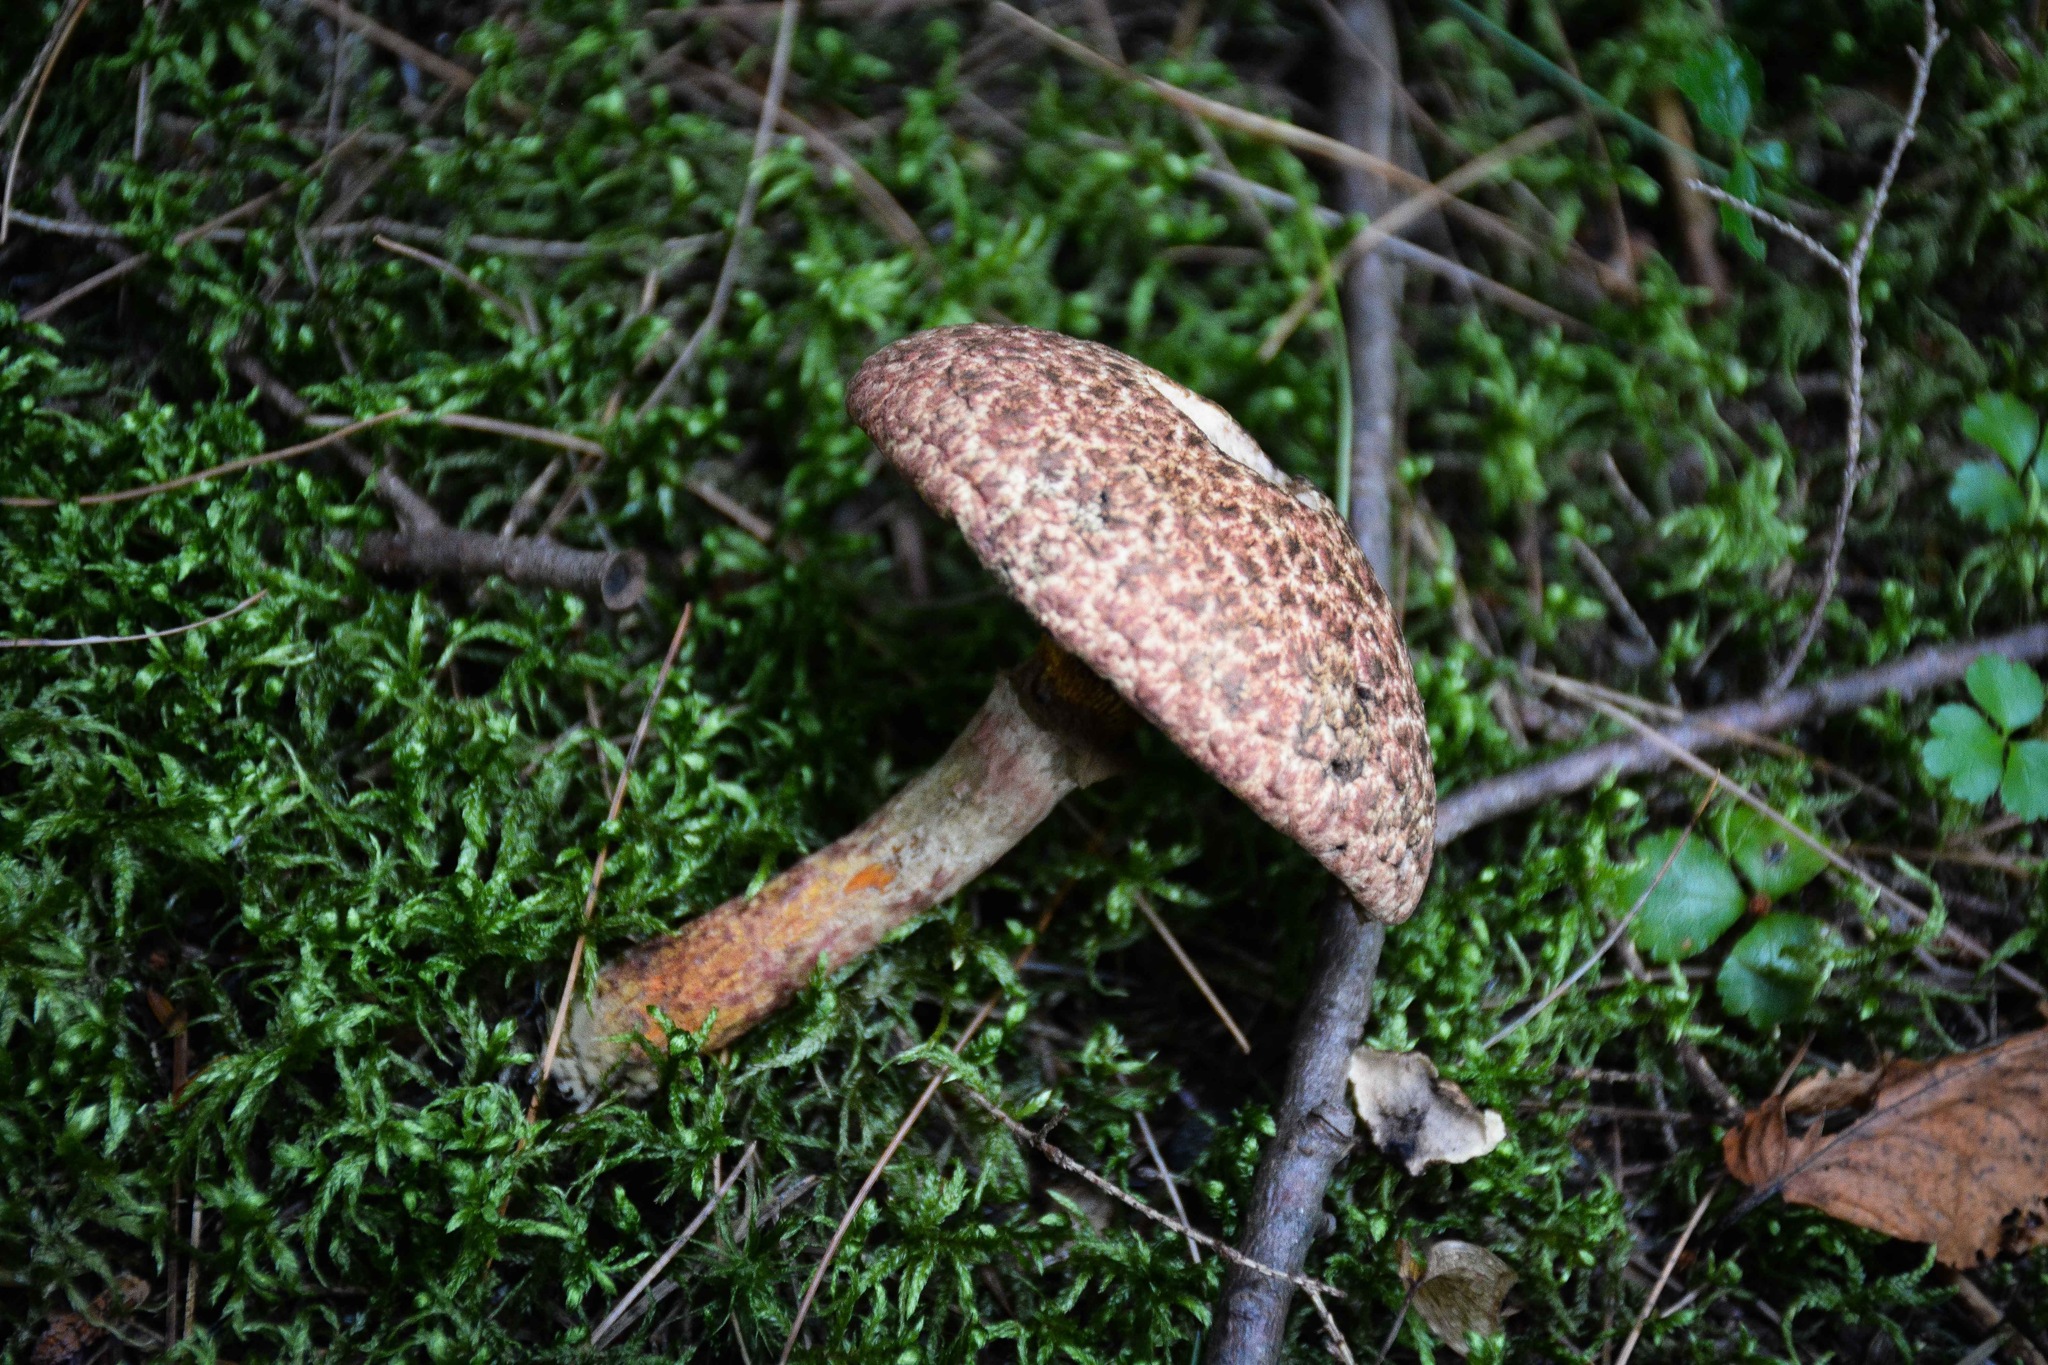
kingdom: Fungi
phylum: Basidiomycota
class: Agaricomycetes
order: Boletales
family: Suillaceae
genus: Suillus
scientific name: Suillus spraguei
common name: Painted suillus
